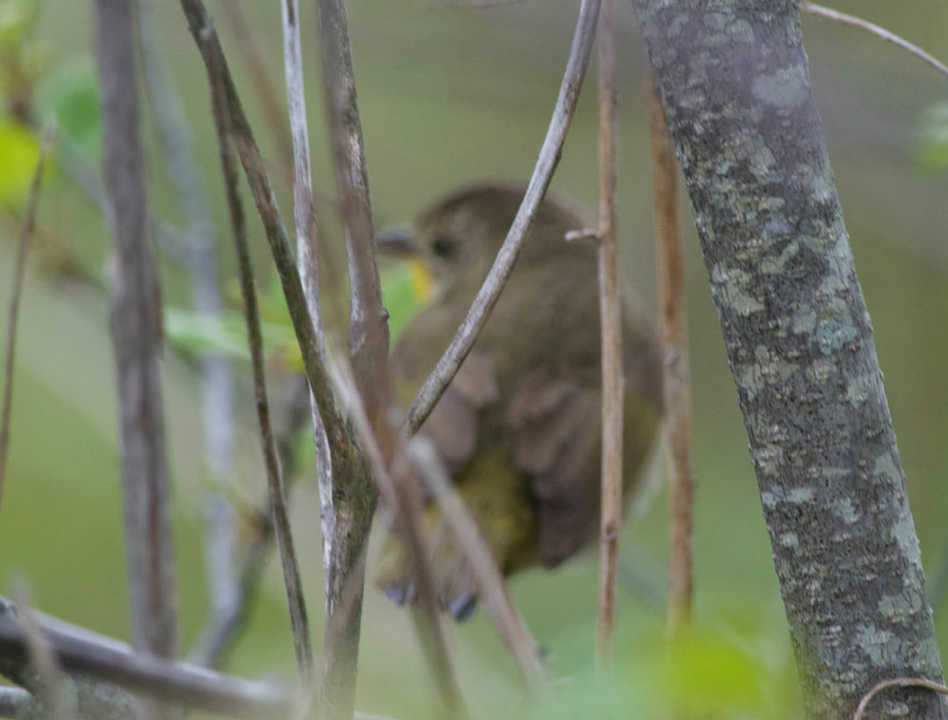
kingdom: Animalia
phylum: Chordata
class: Aves
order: Passeriformes
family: Parulidae
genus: Geothlypis
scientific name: Geothlypis trichas
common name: Common yellowthroat
